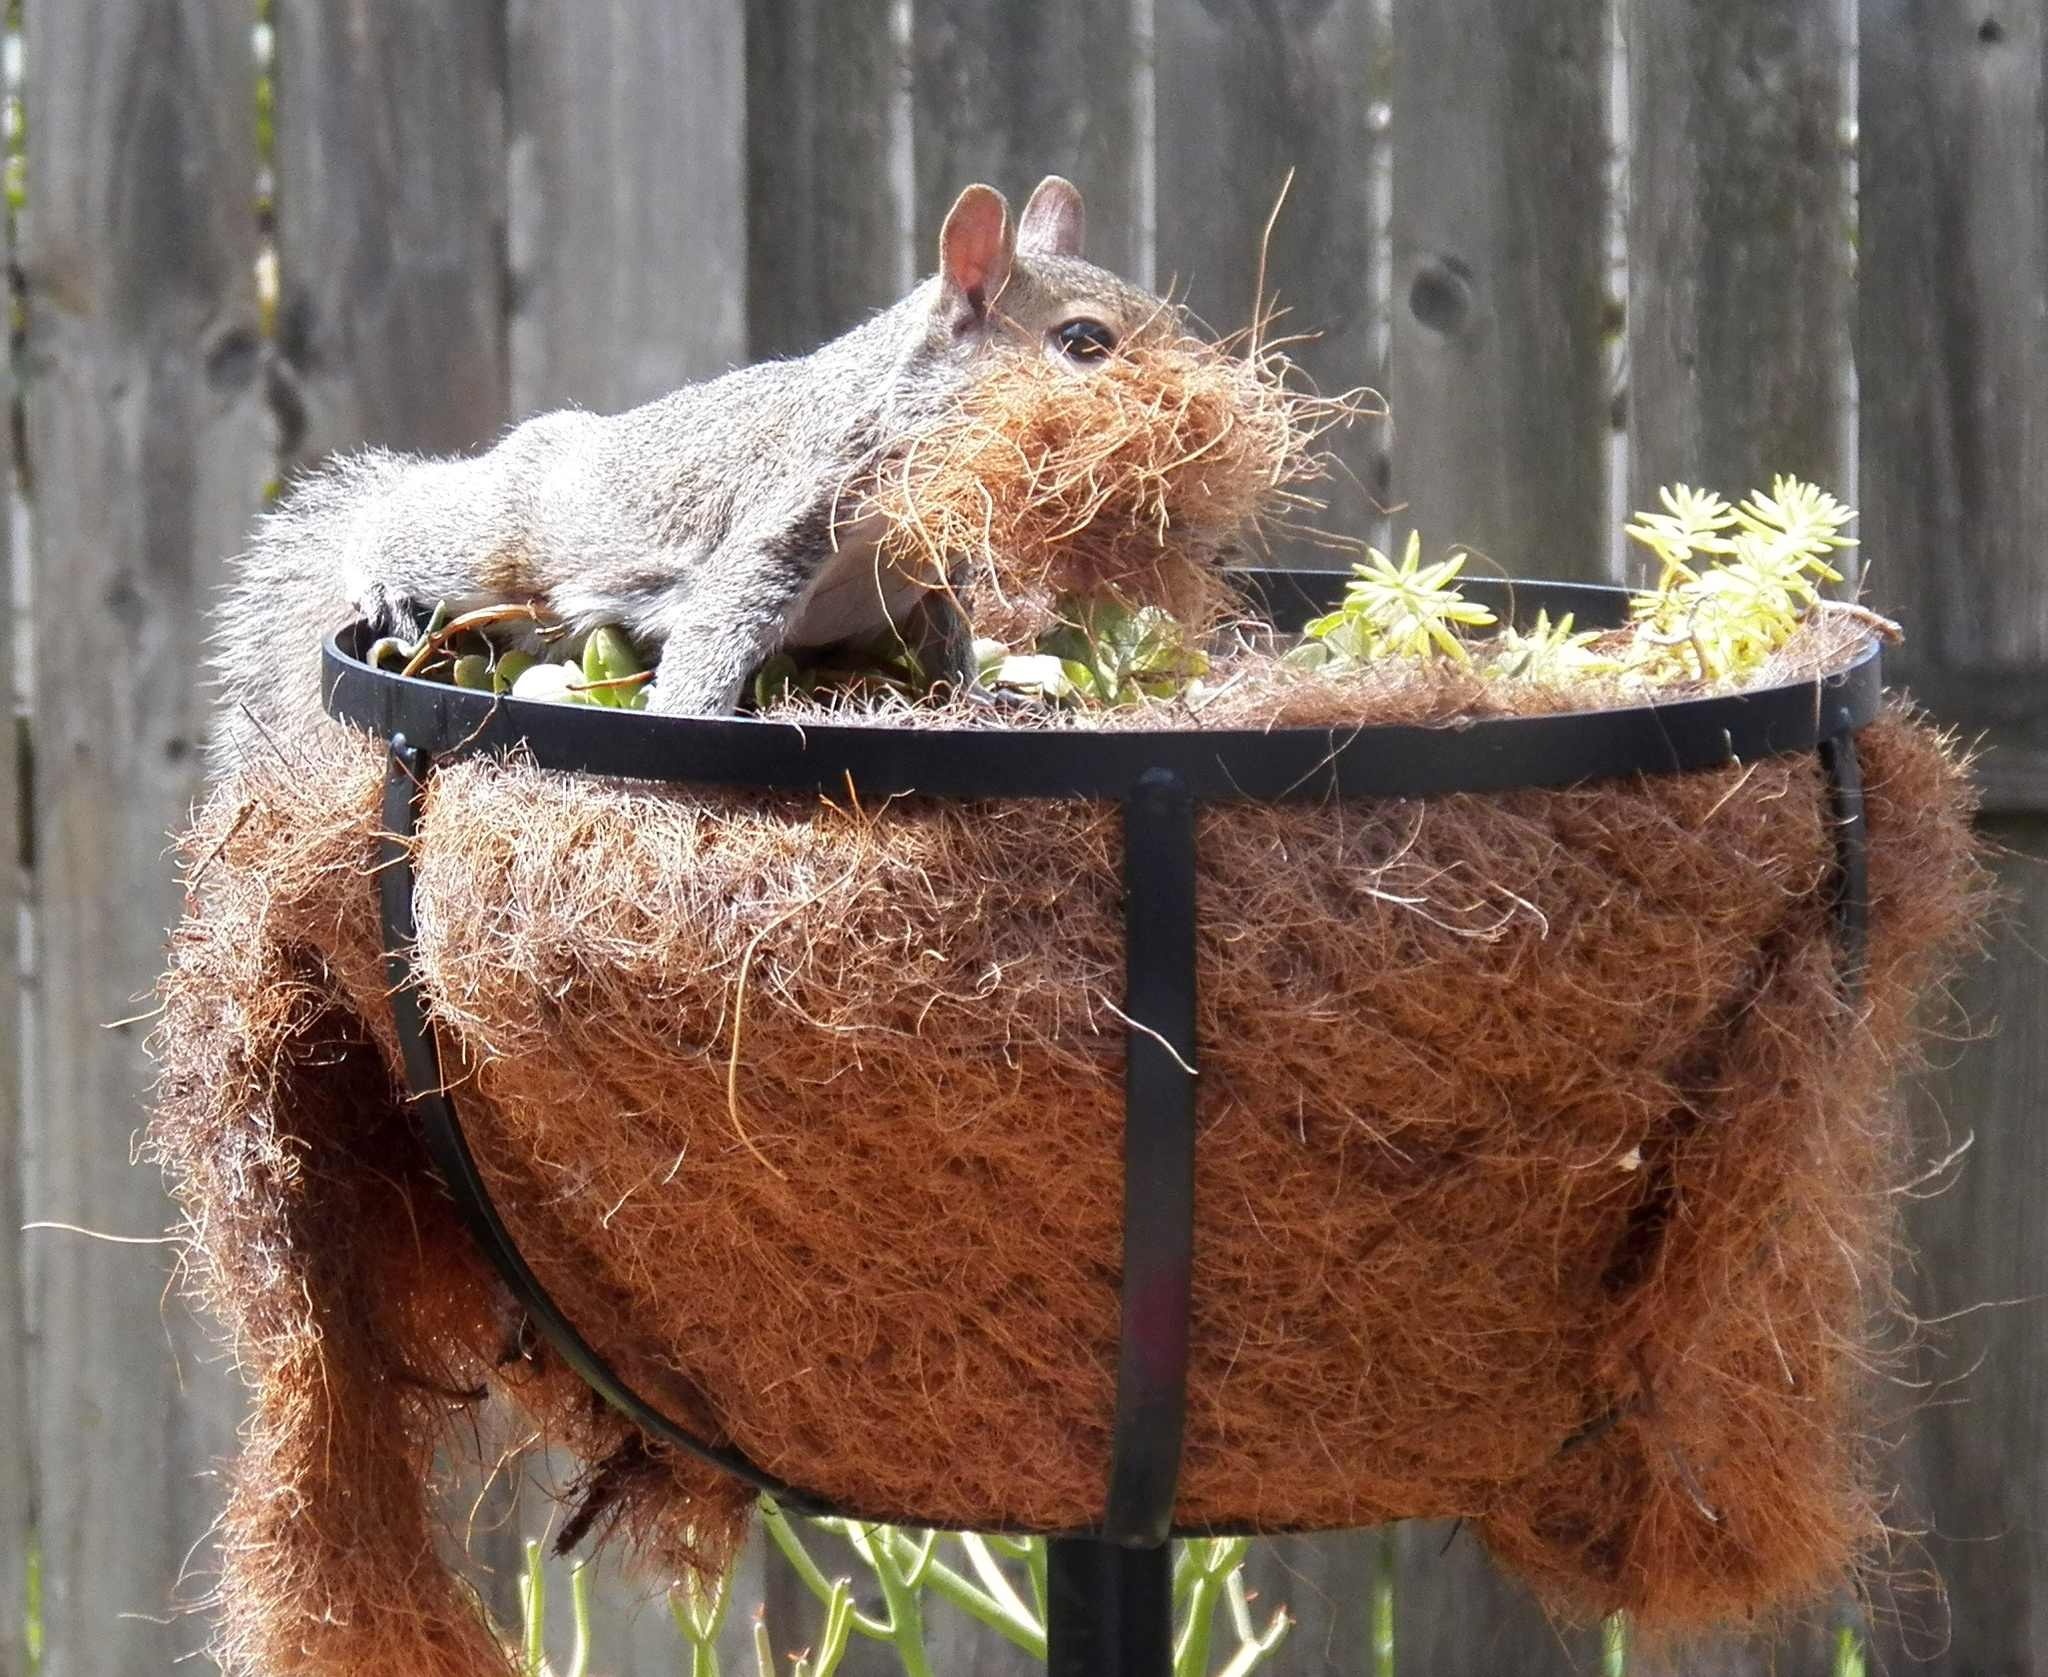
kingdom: Animalia
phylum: Chordata
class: Mammalia
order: Rodentia
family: Sciuridae
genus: Sciurus
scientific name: Sciurus carolinensis
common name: Eastern gray squirrel
